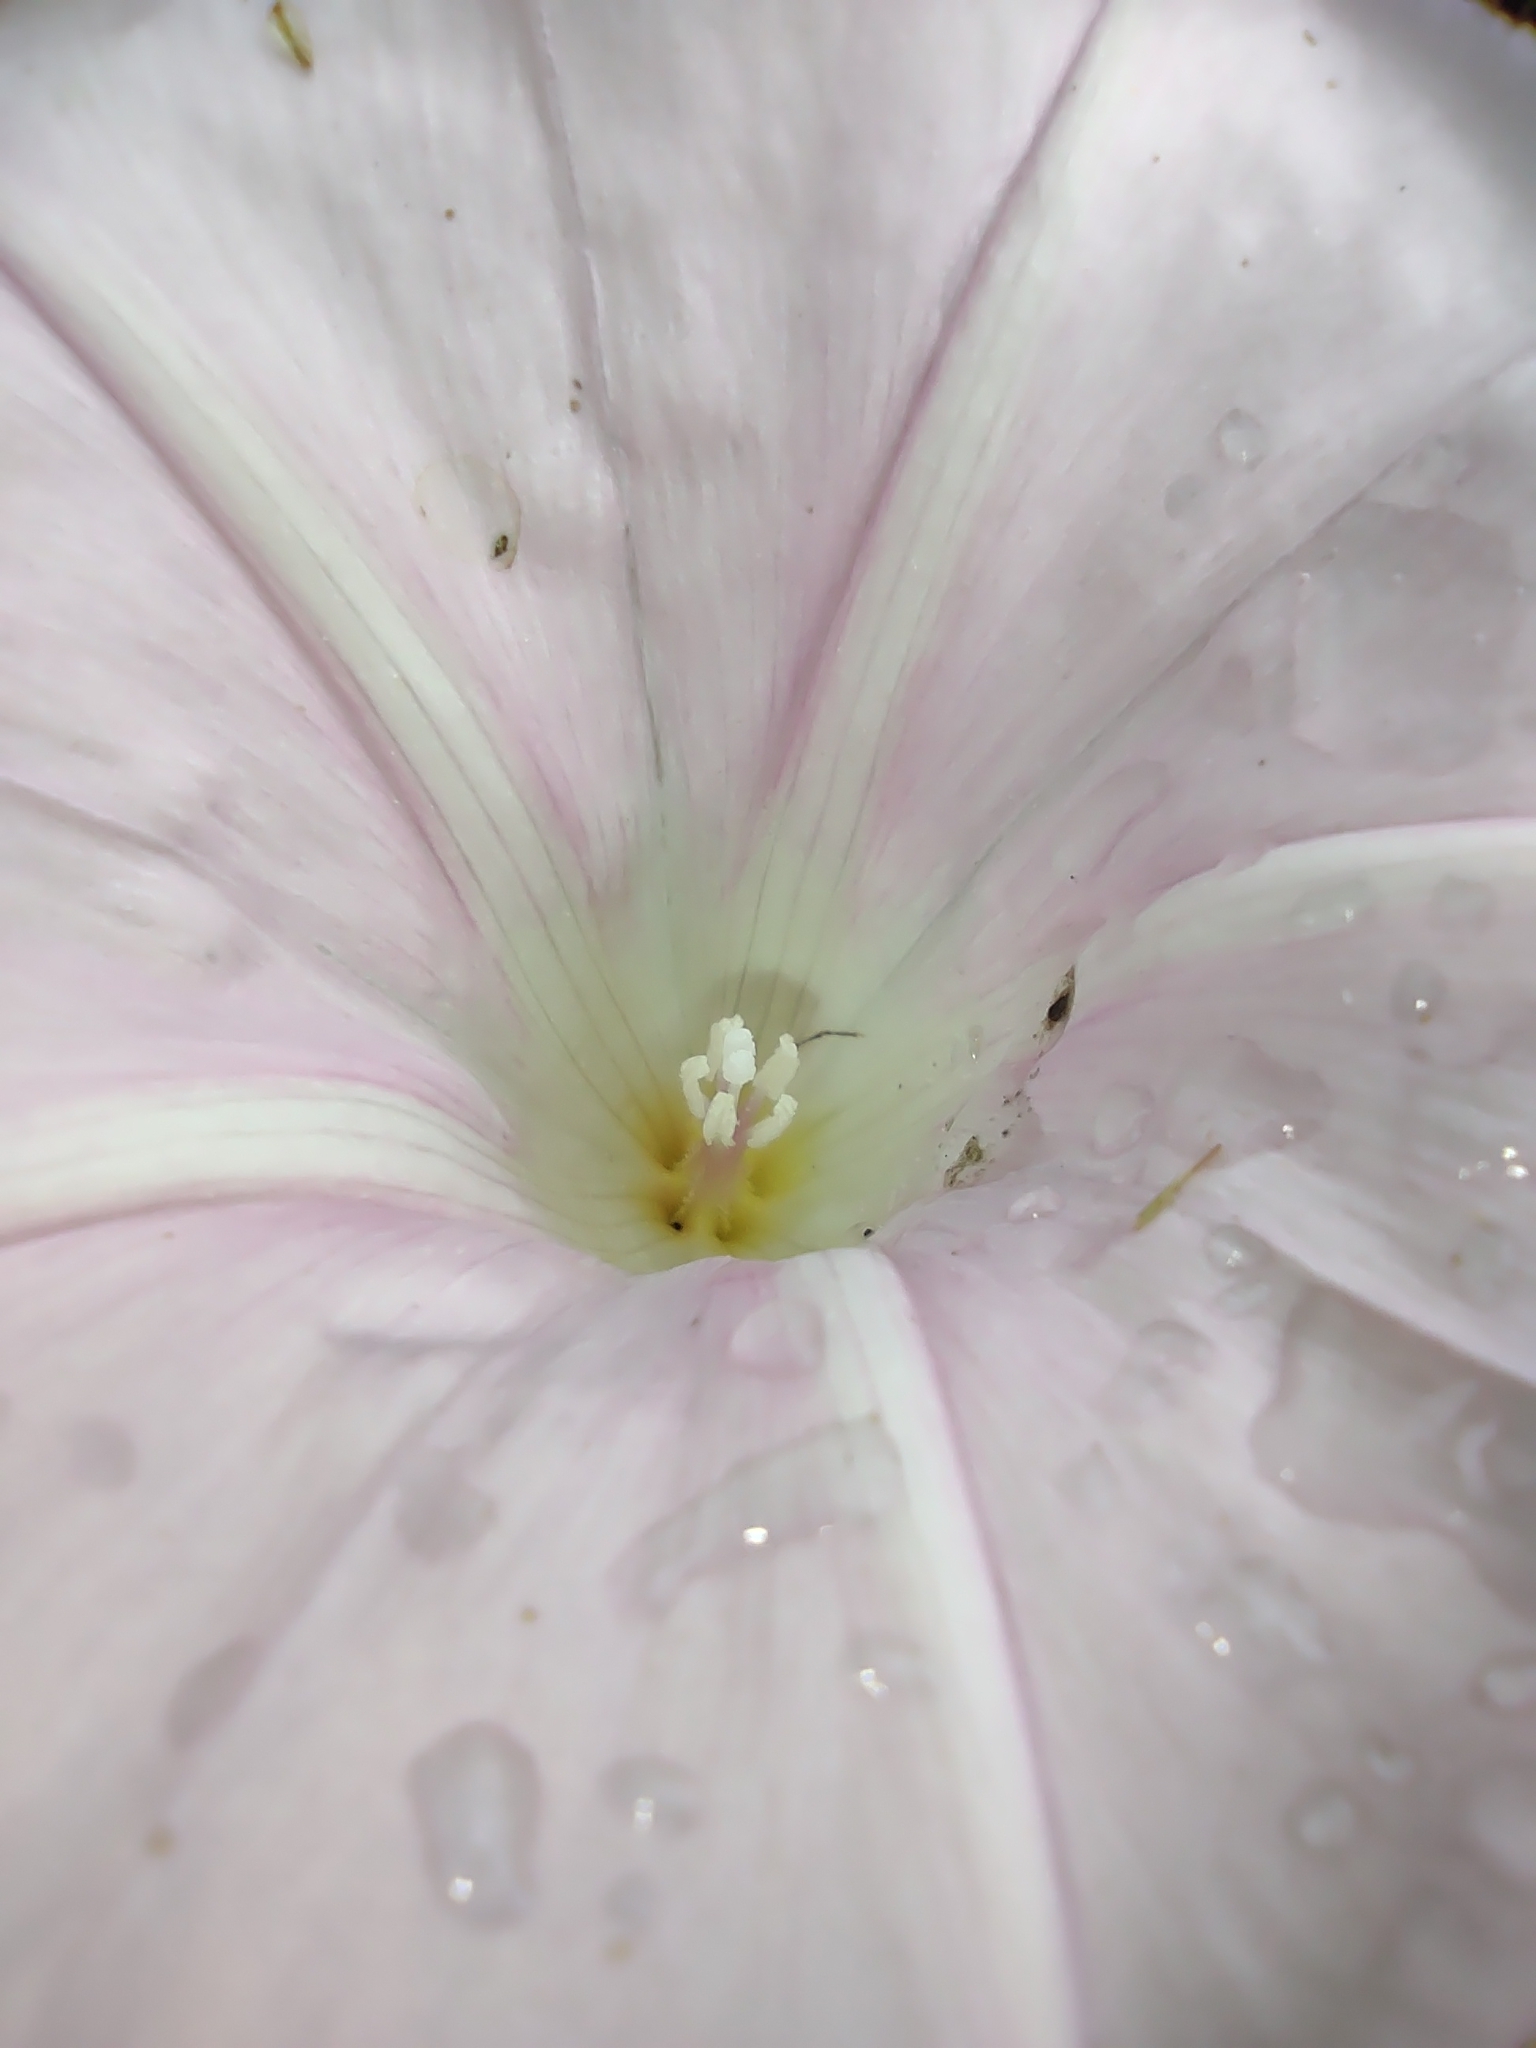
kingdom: Plantae
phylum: Tracheophyta
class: Magnoliopsida
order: Solanales
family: Convolvulaceae
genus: Calystegia
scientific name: Calystegia sepium
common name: Hedge bindweed
